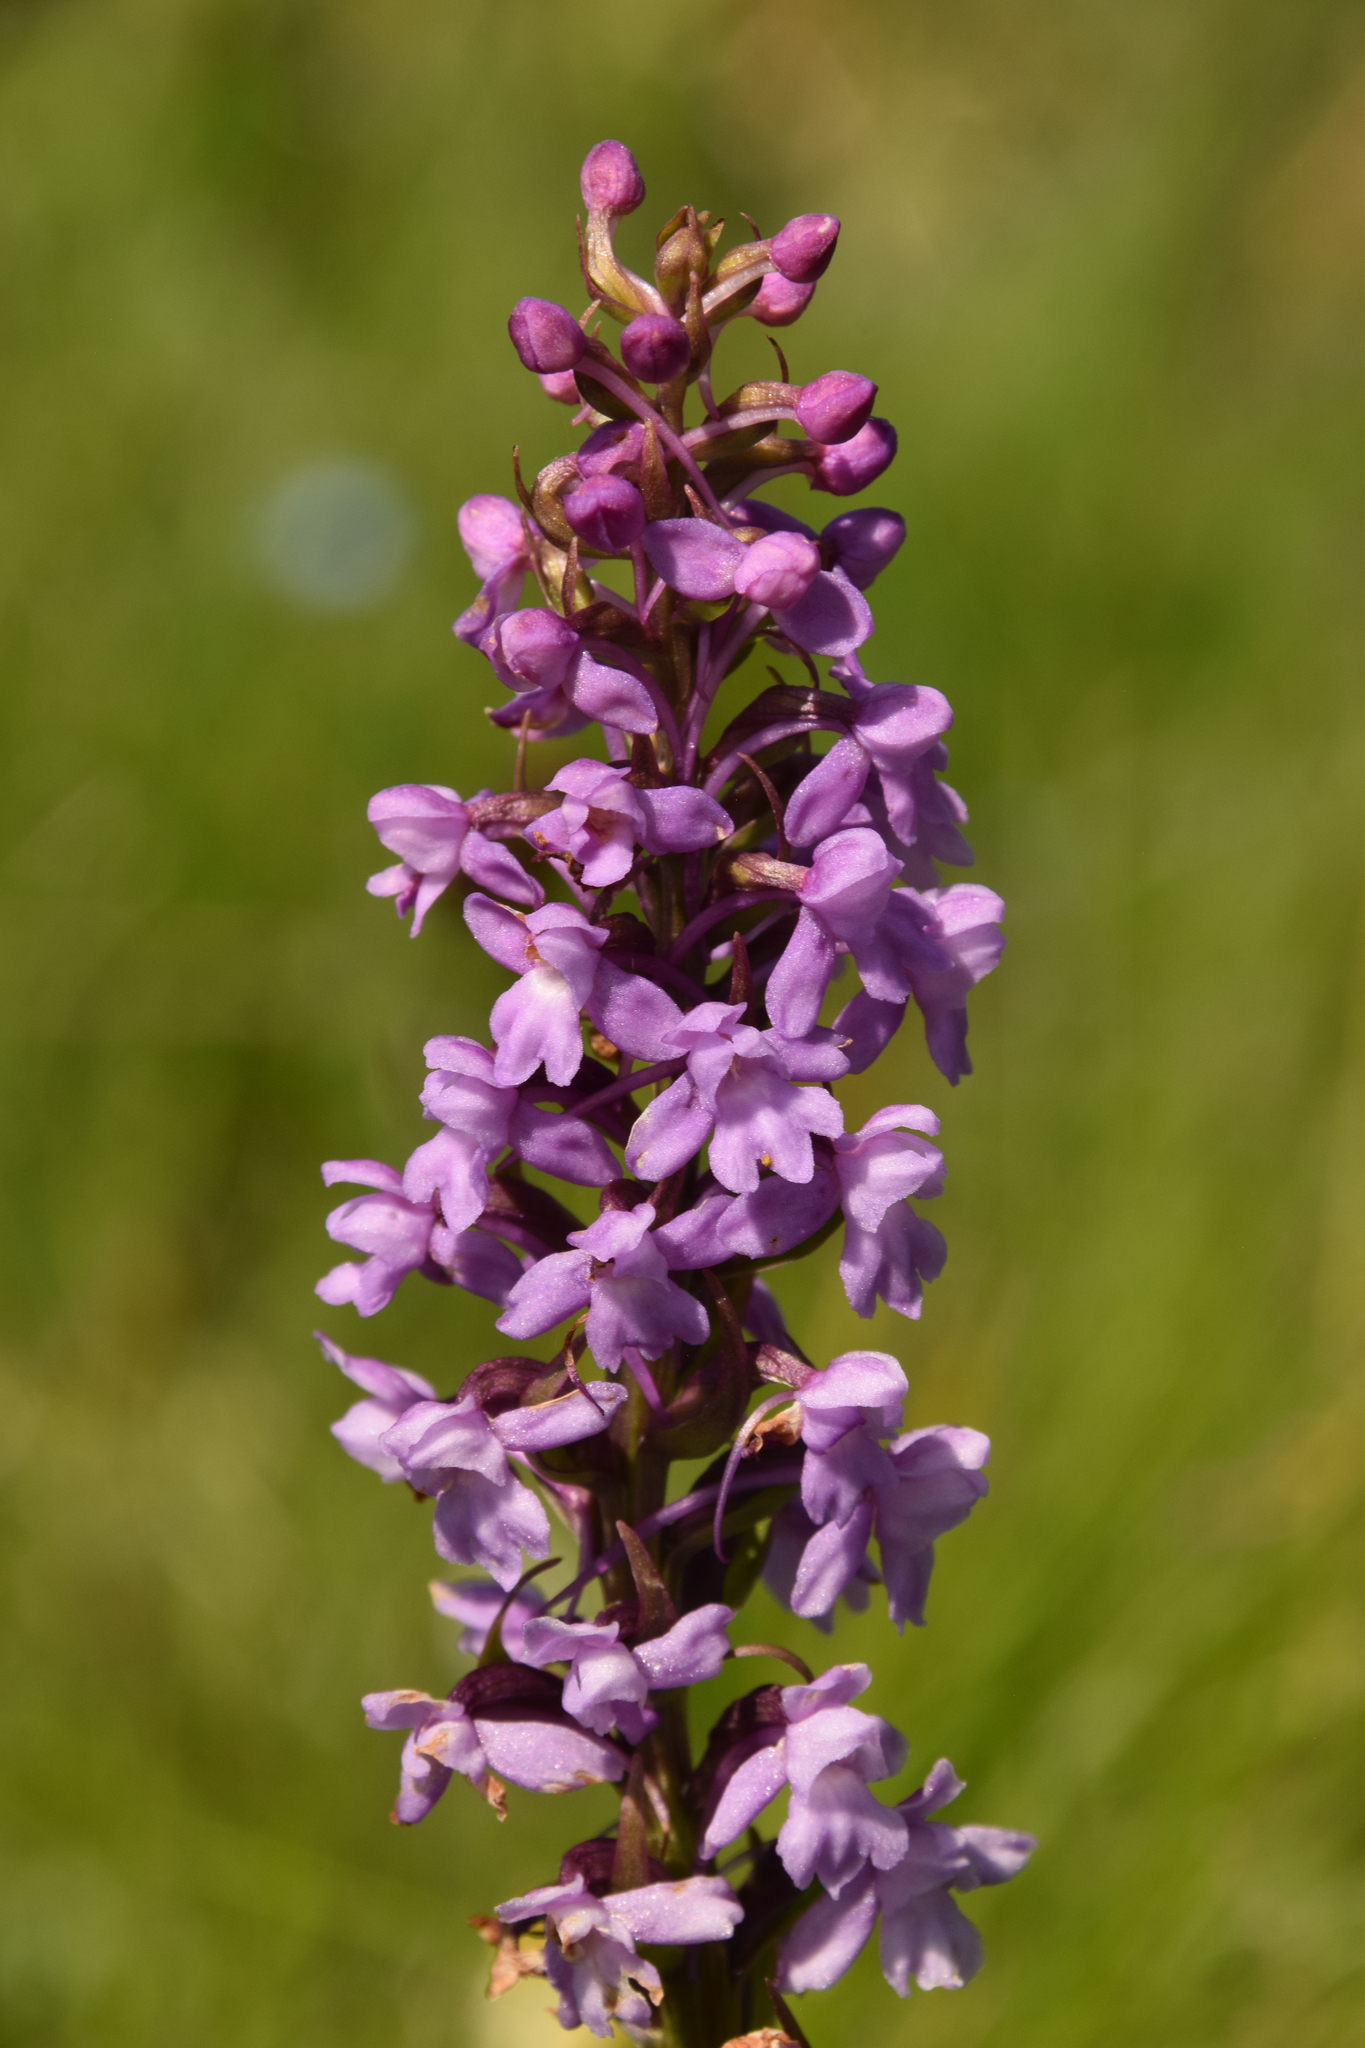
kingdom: Plantae
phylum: Tracheophyta
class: Liliopsida
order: Asparagales
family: Orchidaceae
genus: Gymnadenia
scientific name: Gymnadenia conopsea
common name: Fragrant orchid
